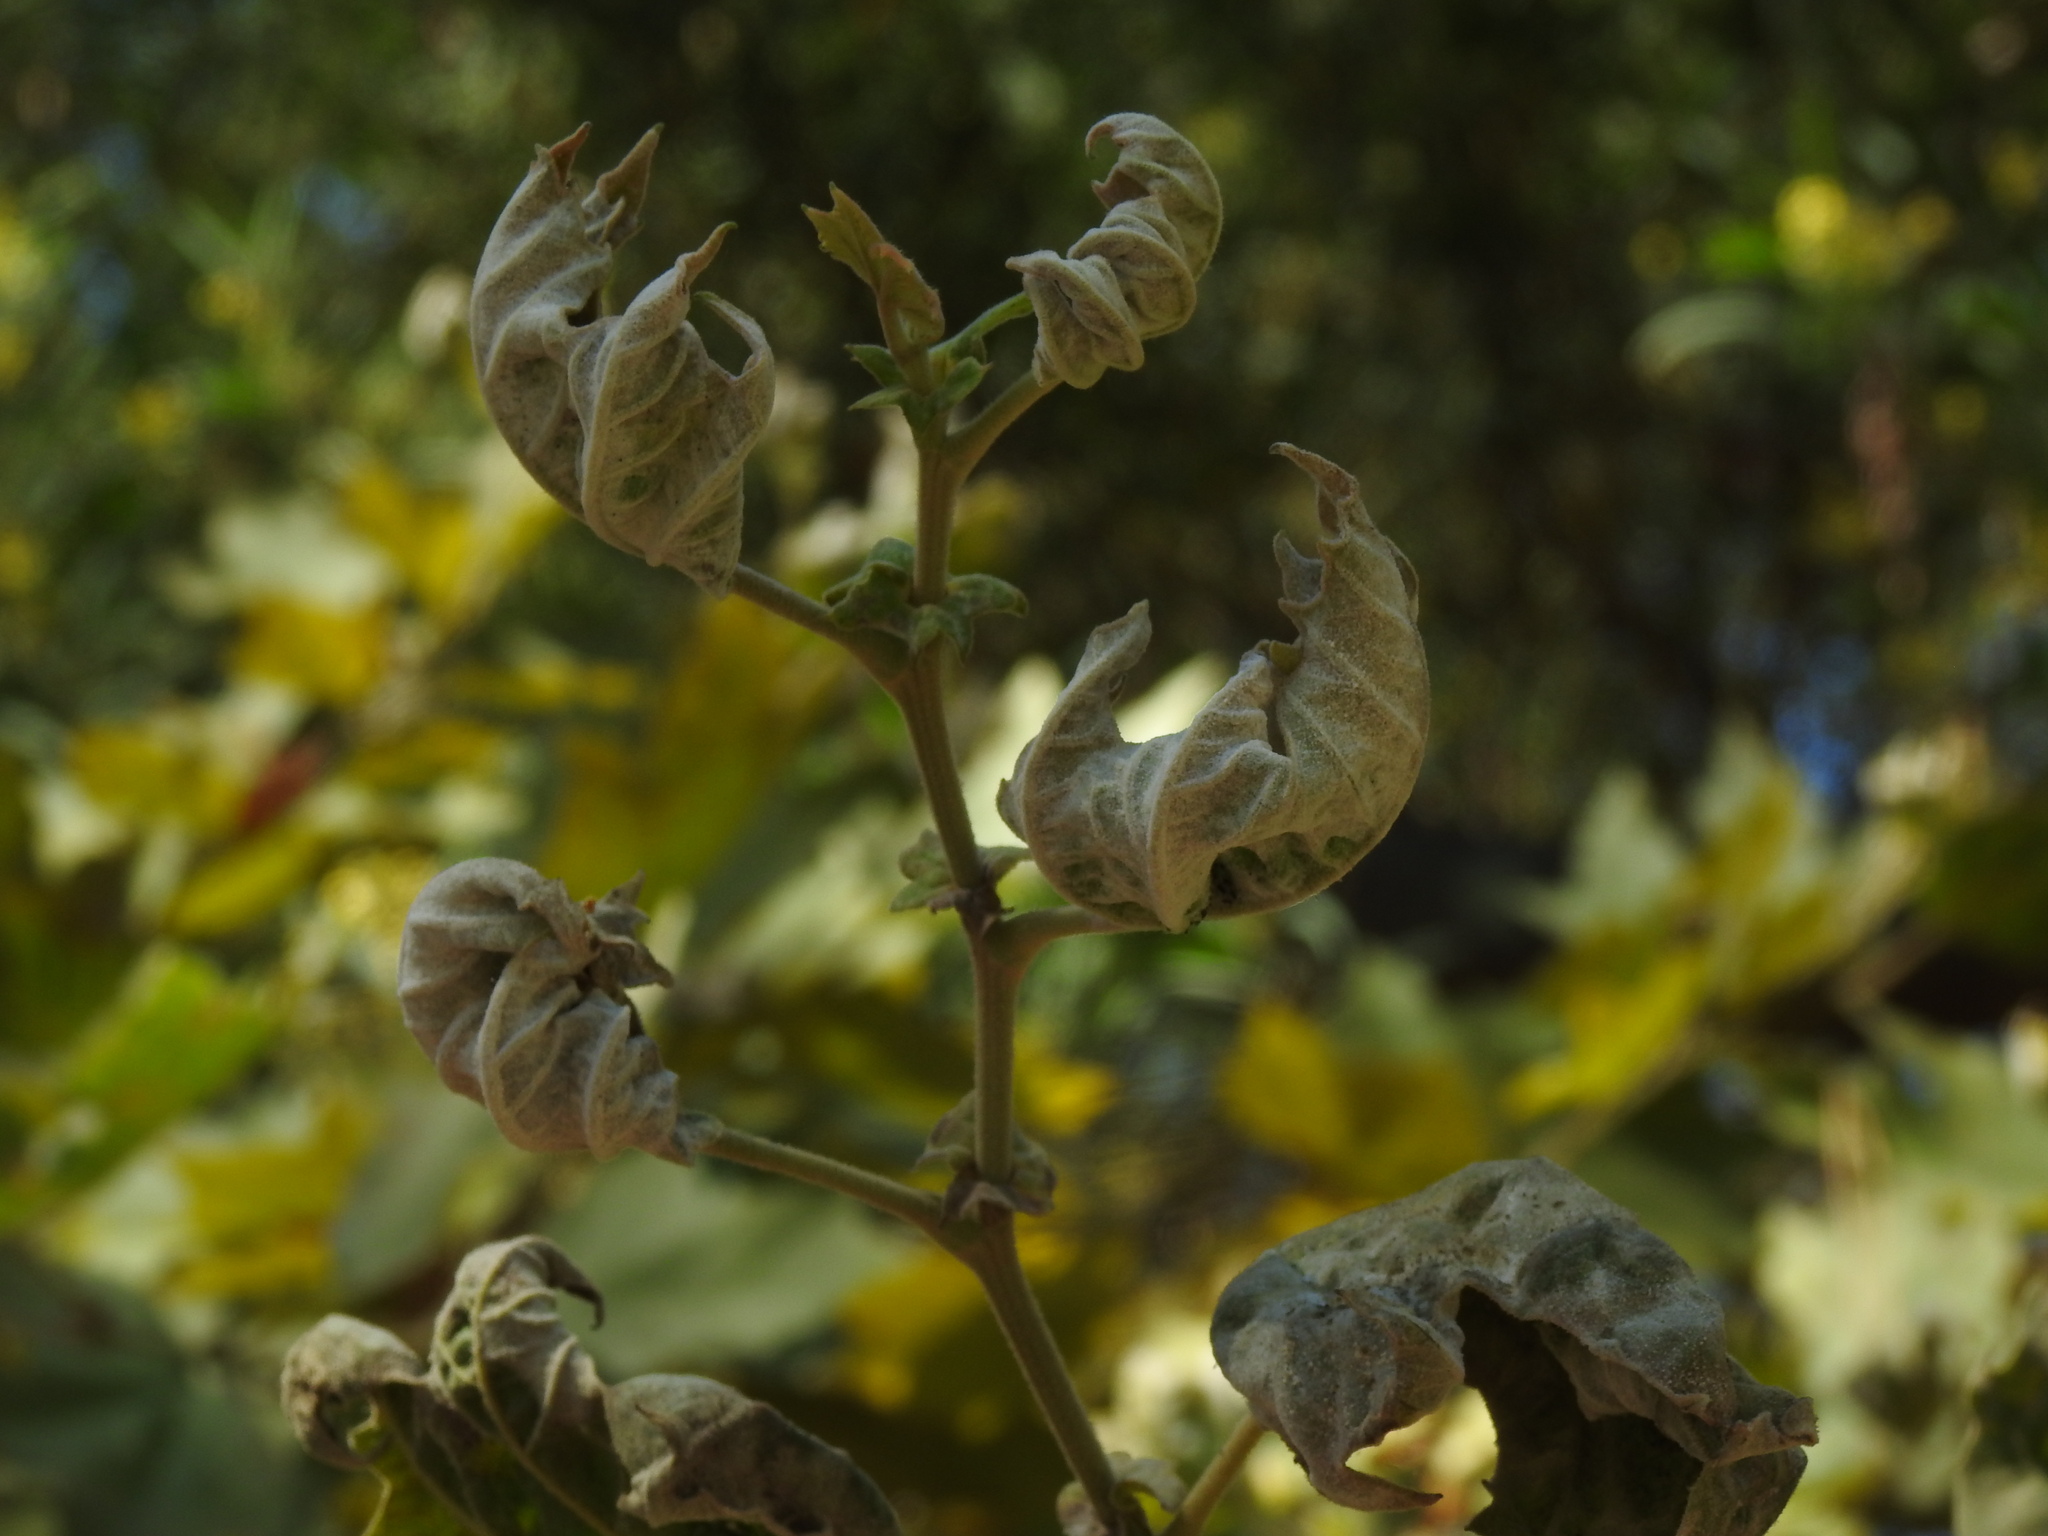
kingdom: Fungi
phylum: Ascomycota
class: Leotiomycetes
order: Helotiales
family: Erysiphaceae
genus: Erysiphe
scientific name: Erysiphe platani
